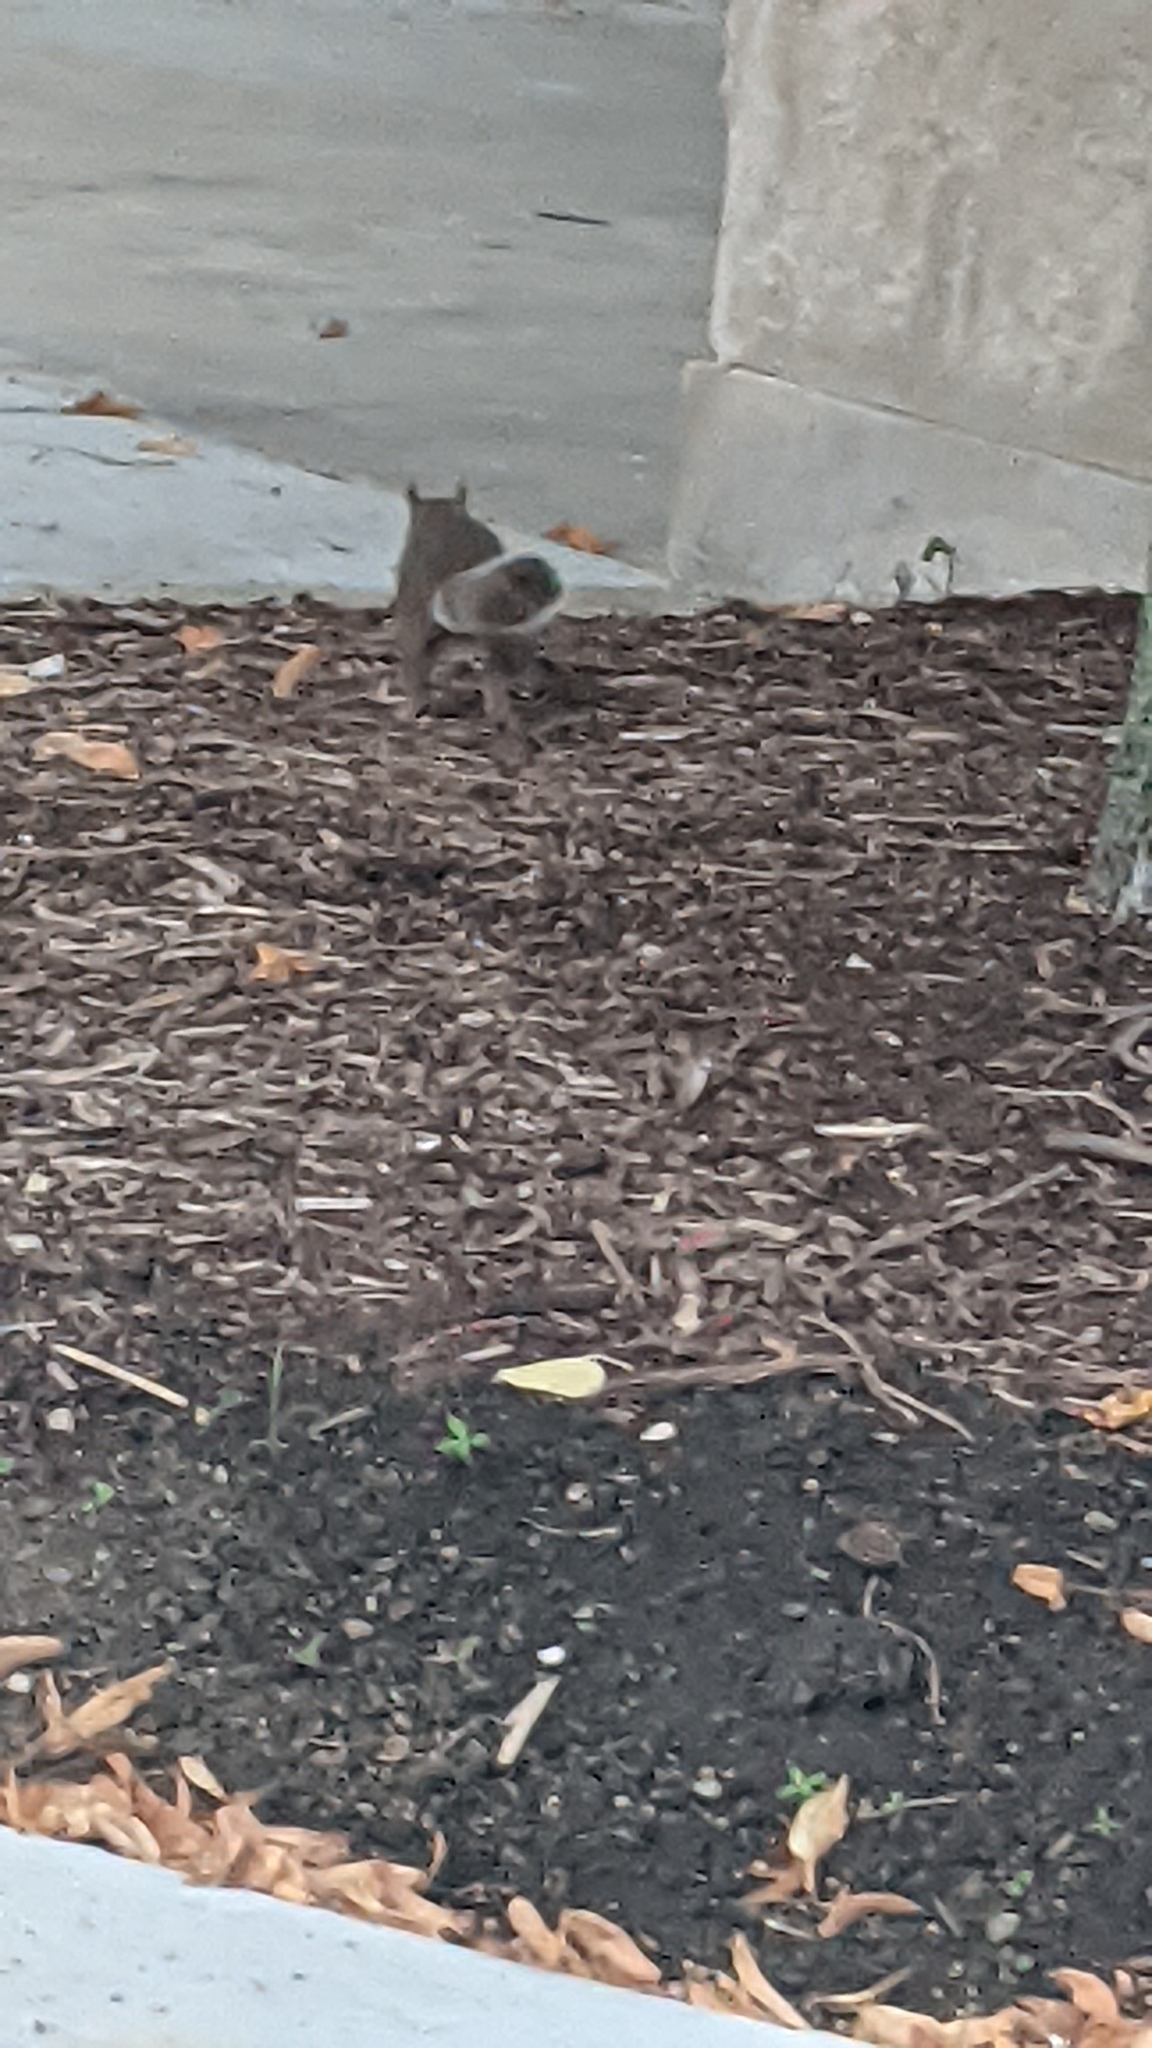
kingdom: Animalia
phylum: Chordata
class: Mammalia
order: Rodentia
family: Sciuridae
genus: Sciurus
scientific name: Sciurus carolinensis
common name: Eastern gray squirrel
